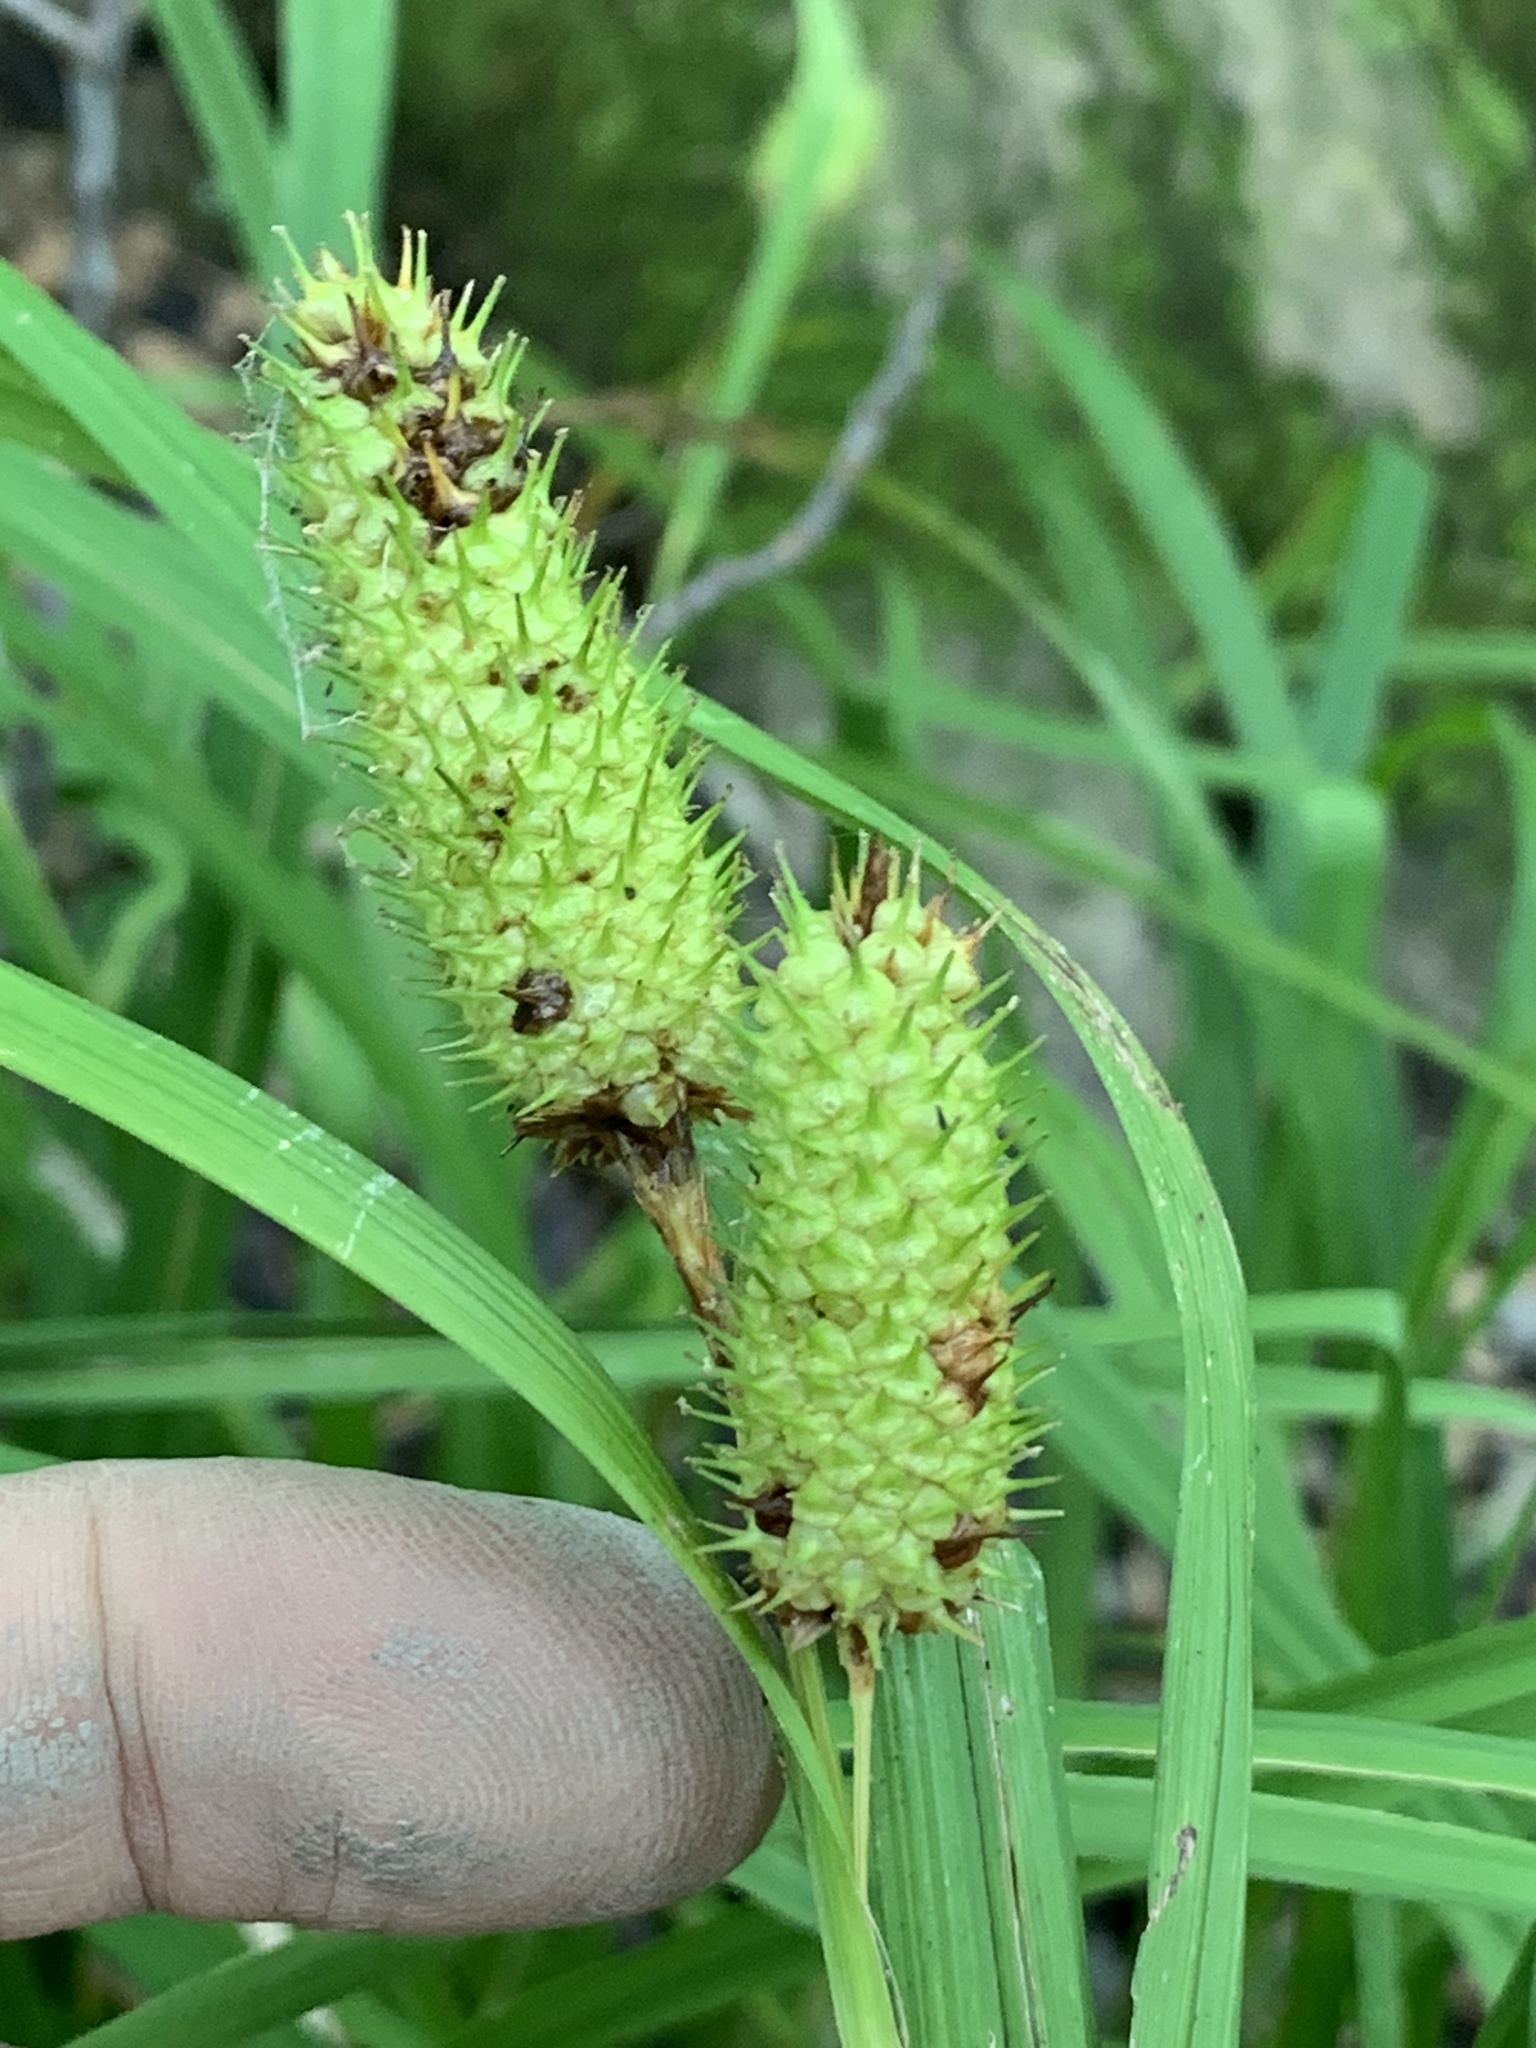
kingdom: Plantae
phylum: Tracheophyta
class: Liliopsida
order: Poales
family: Cyperaceae
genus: Carex
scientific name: Carex typhina
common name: Cattail sedge
